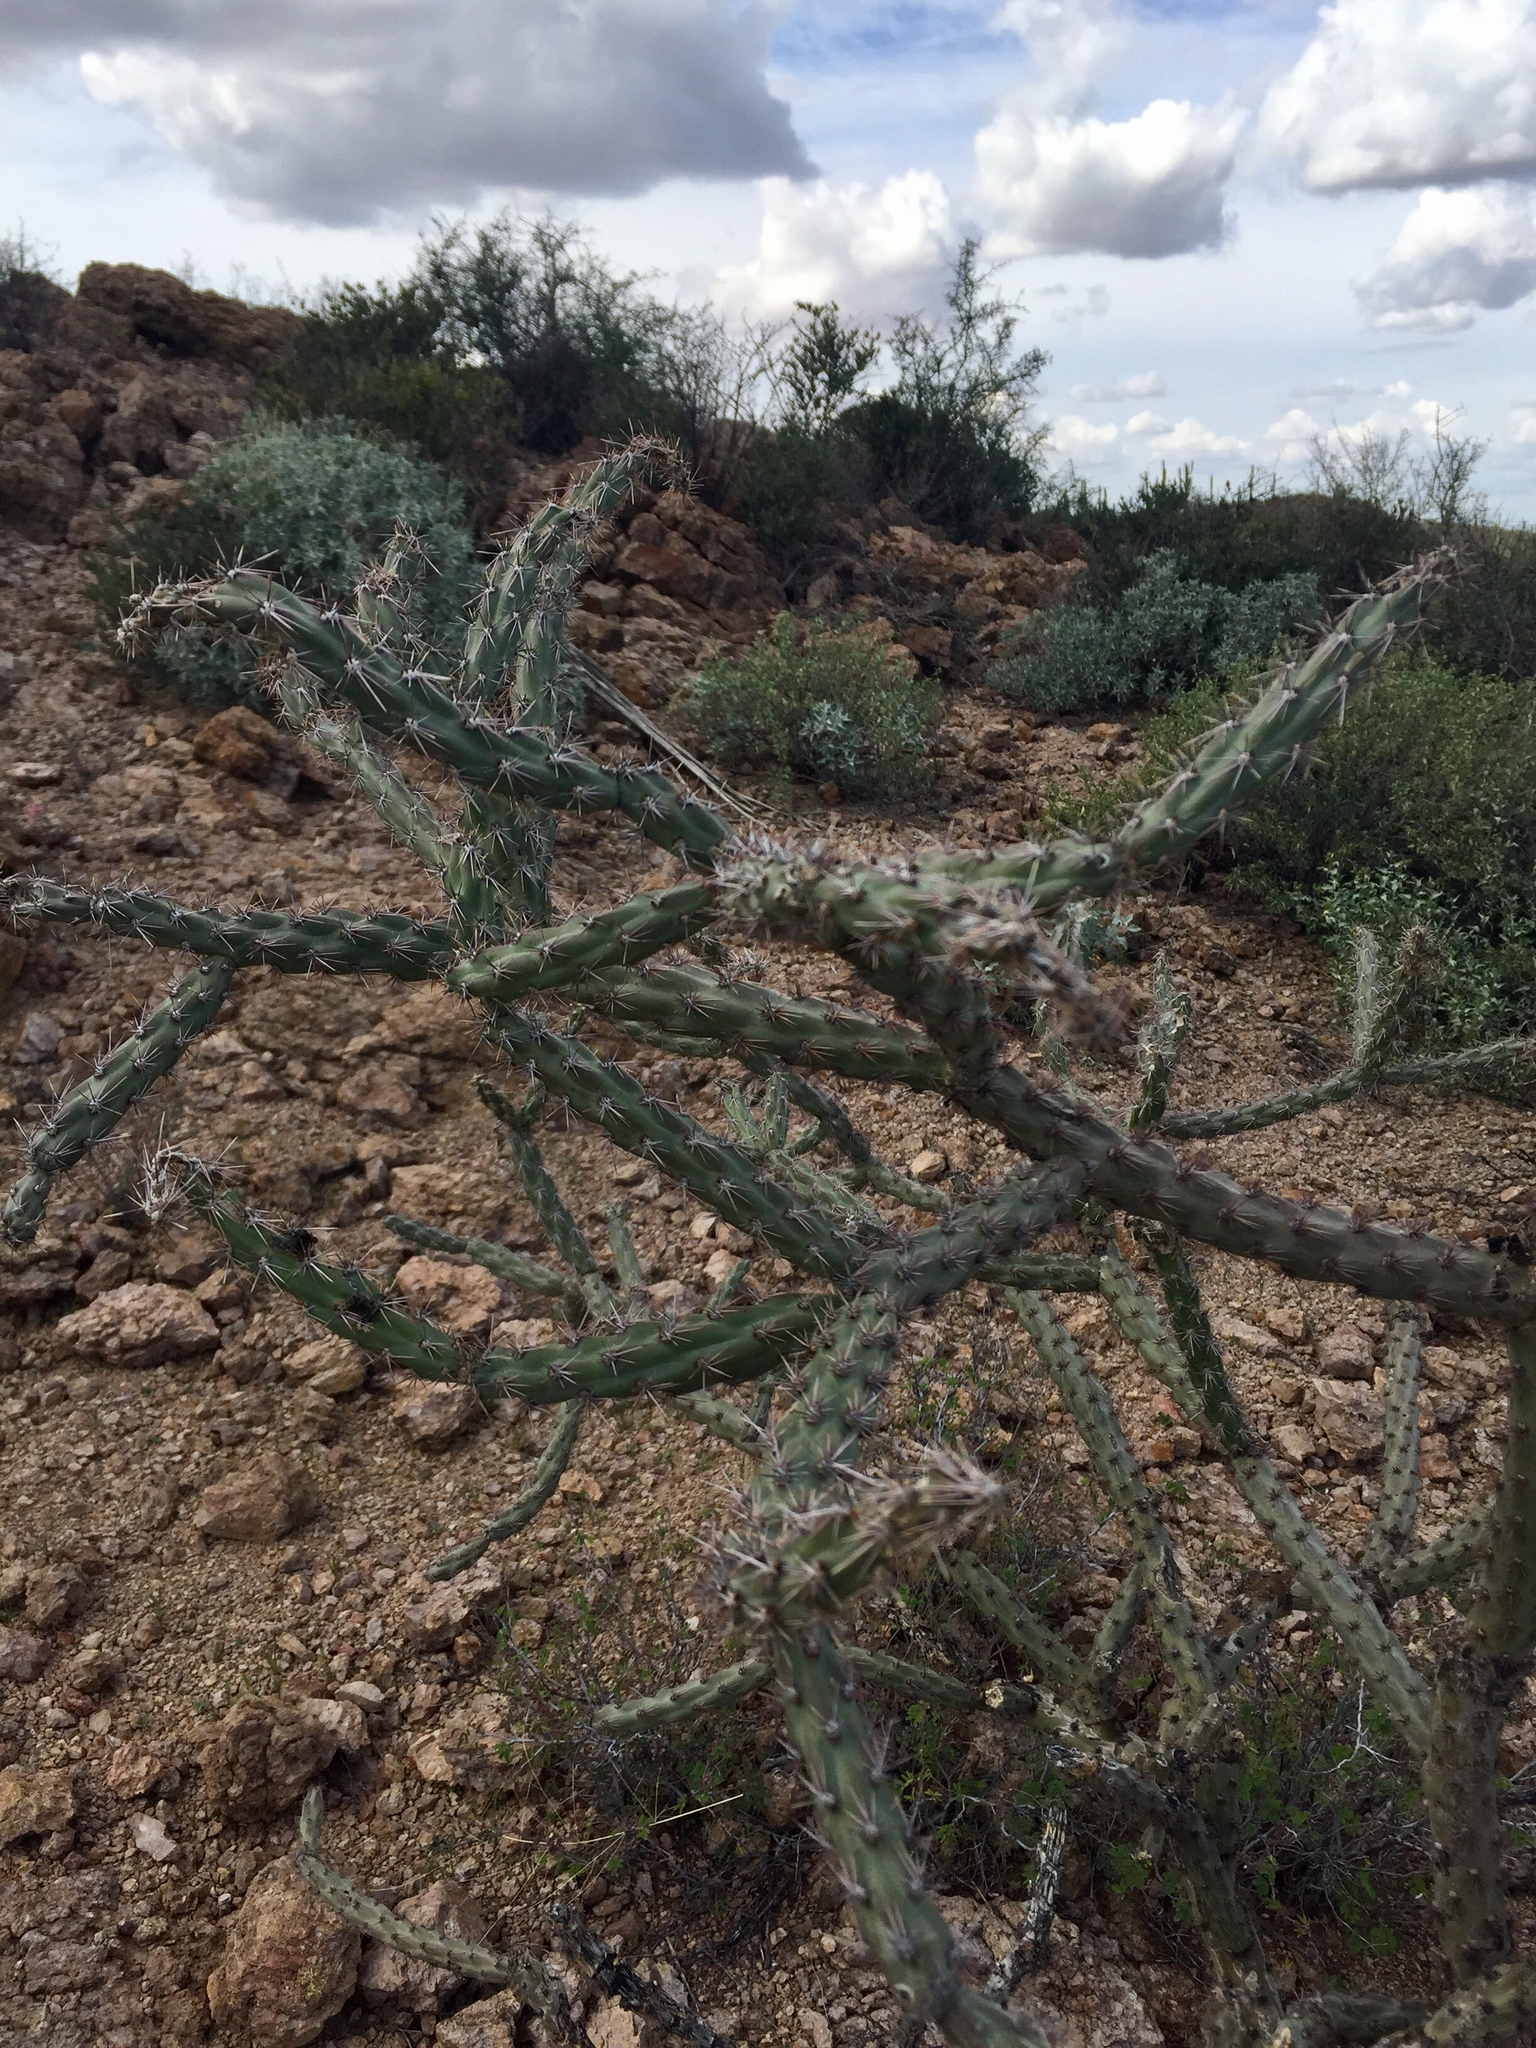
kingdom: Plantae
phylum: Tracheophyta
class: Magnoliopsida
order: Caryophyllales
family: Cactaceae
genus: Cylindropuntia
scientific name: Cylindropuntia acanthocarpa
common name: Buckhorn cholla
